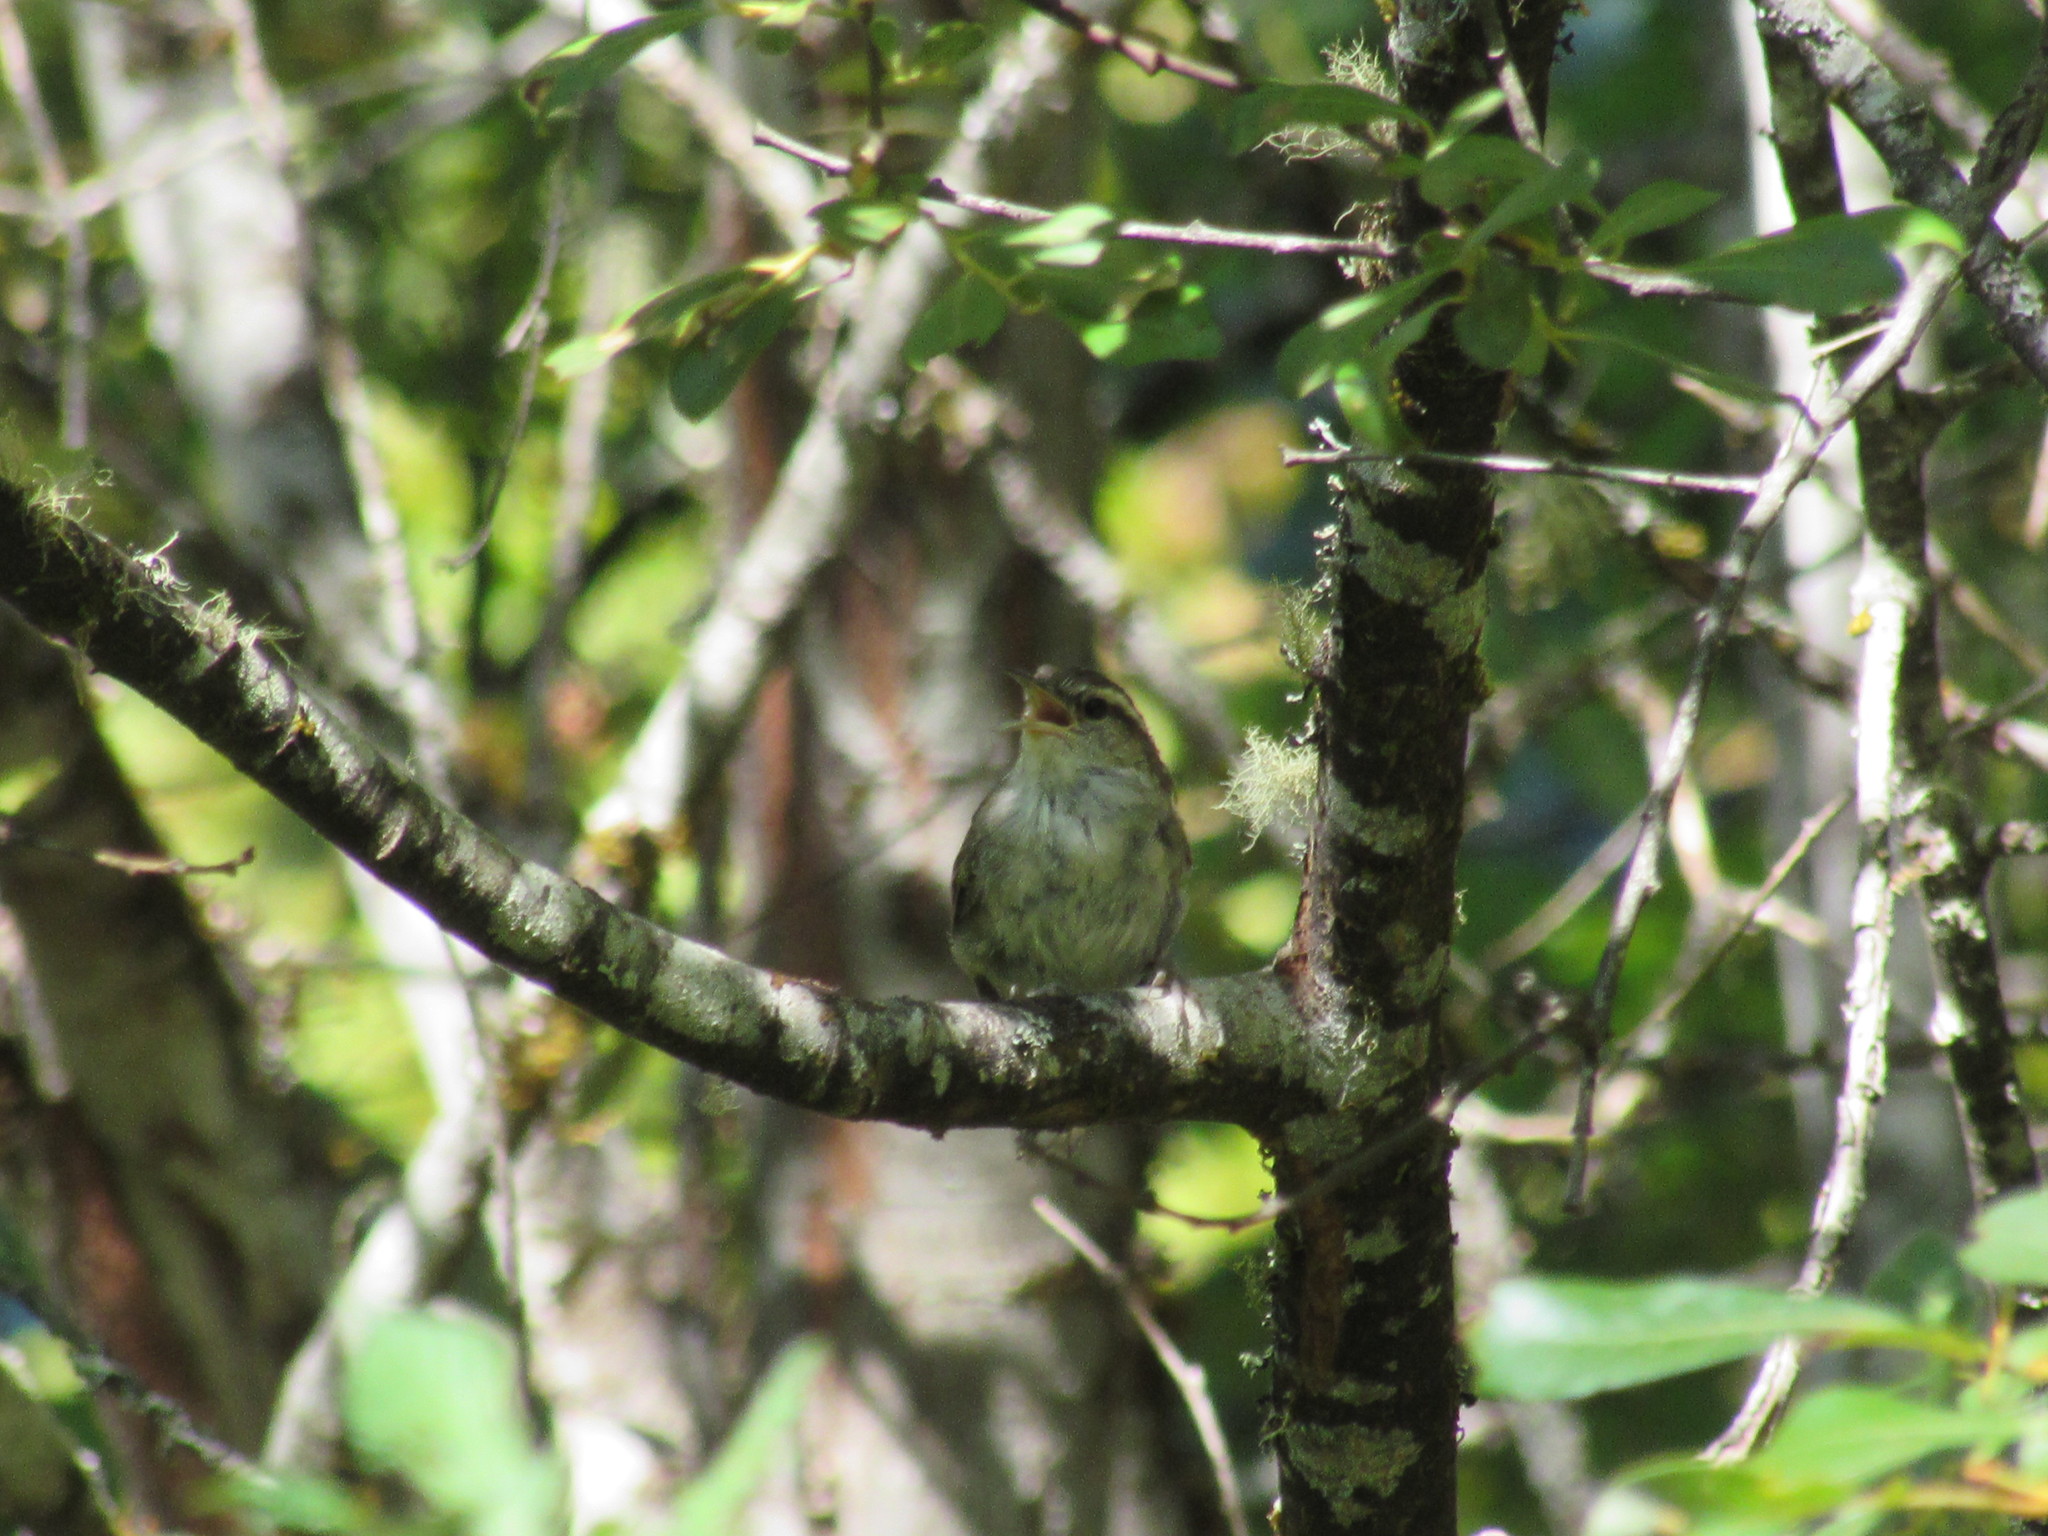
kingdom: Animalia
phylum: Chordata
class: Aves
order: Passeriformes
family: Troglodytidae
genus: Thryomanes
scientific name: Thryomanes bewickii
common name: Bewick's wren
